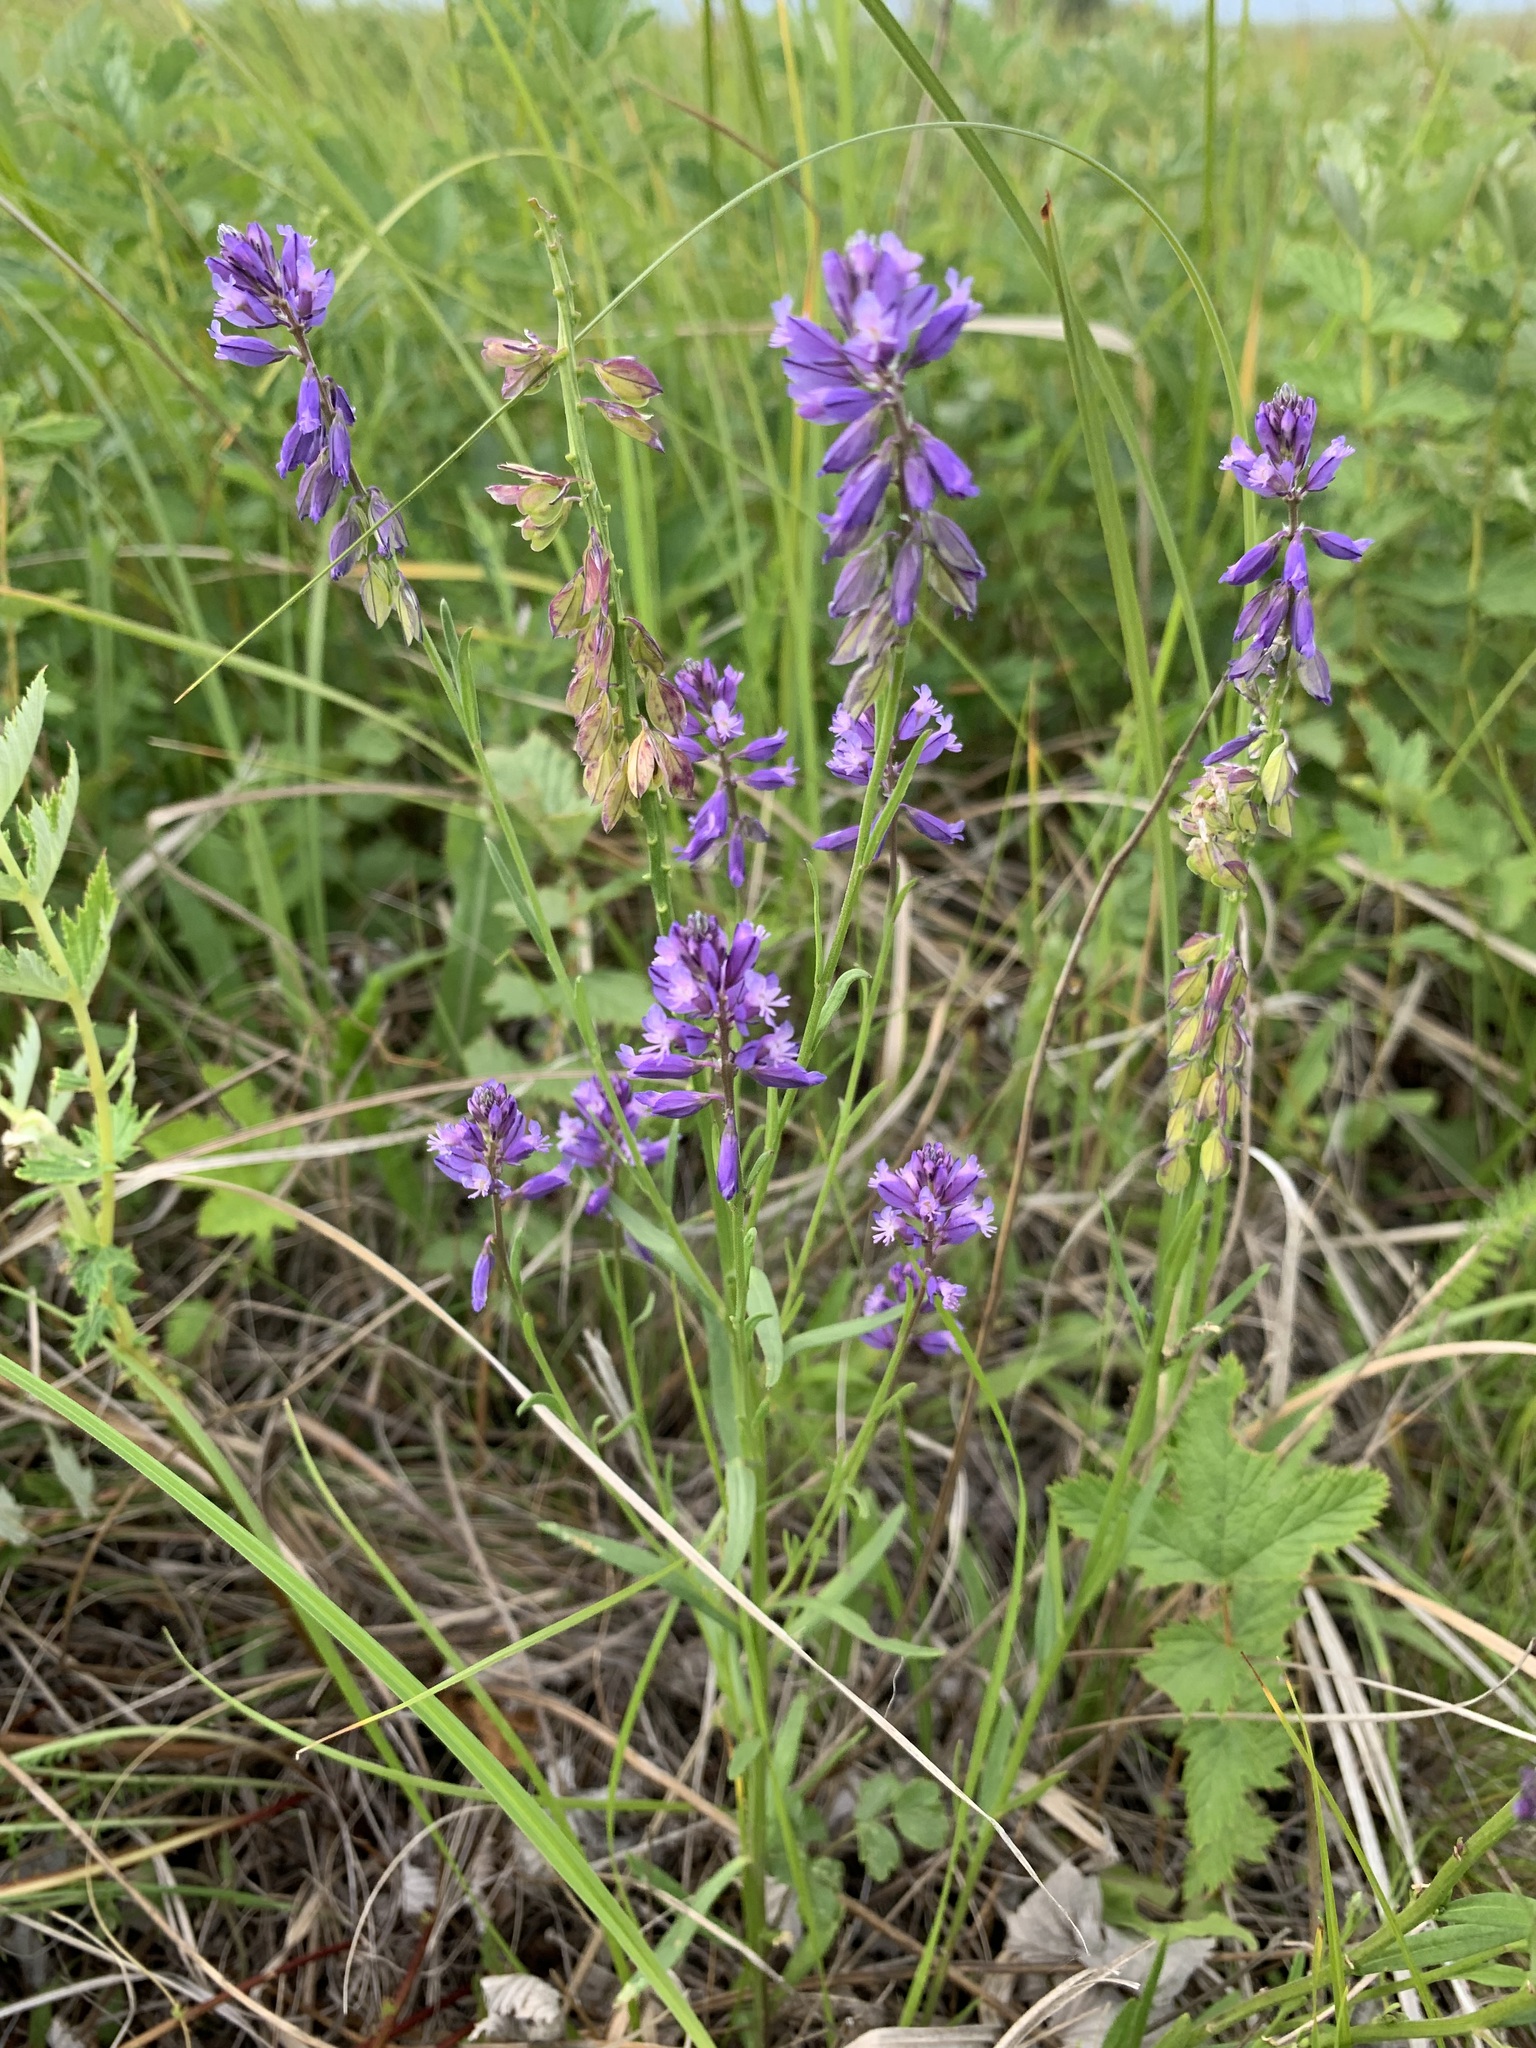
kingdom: Plantae
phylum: Tracheophyta
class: Magnoliopsida
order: Fabales
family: Polygalaceae
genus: Polygala
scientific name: Polygala comosa
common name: Tufted milkwort
